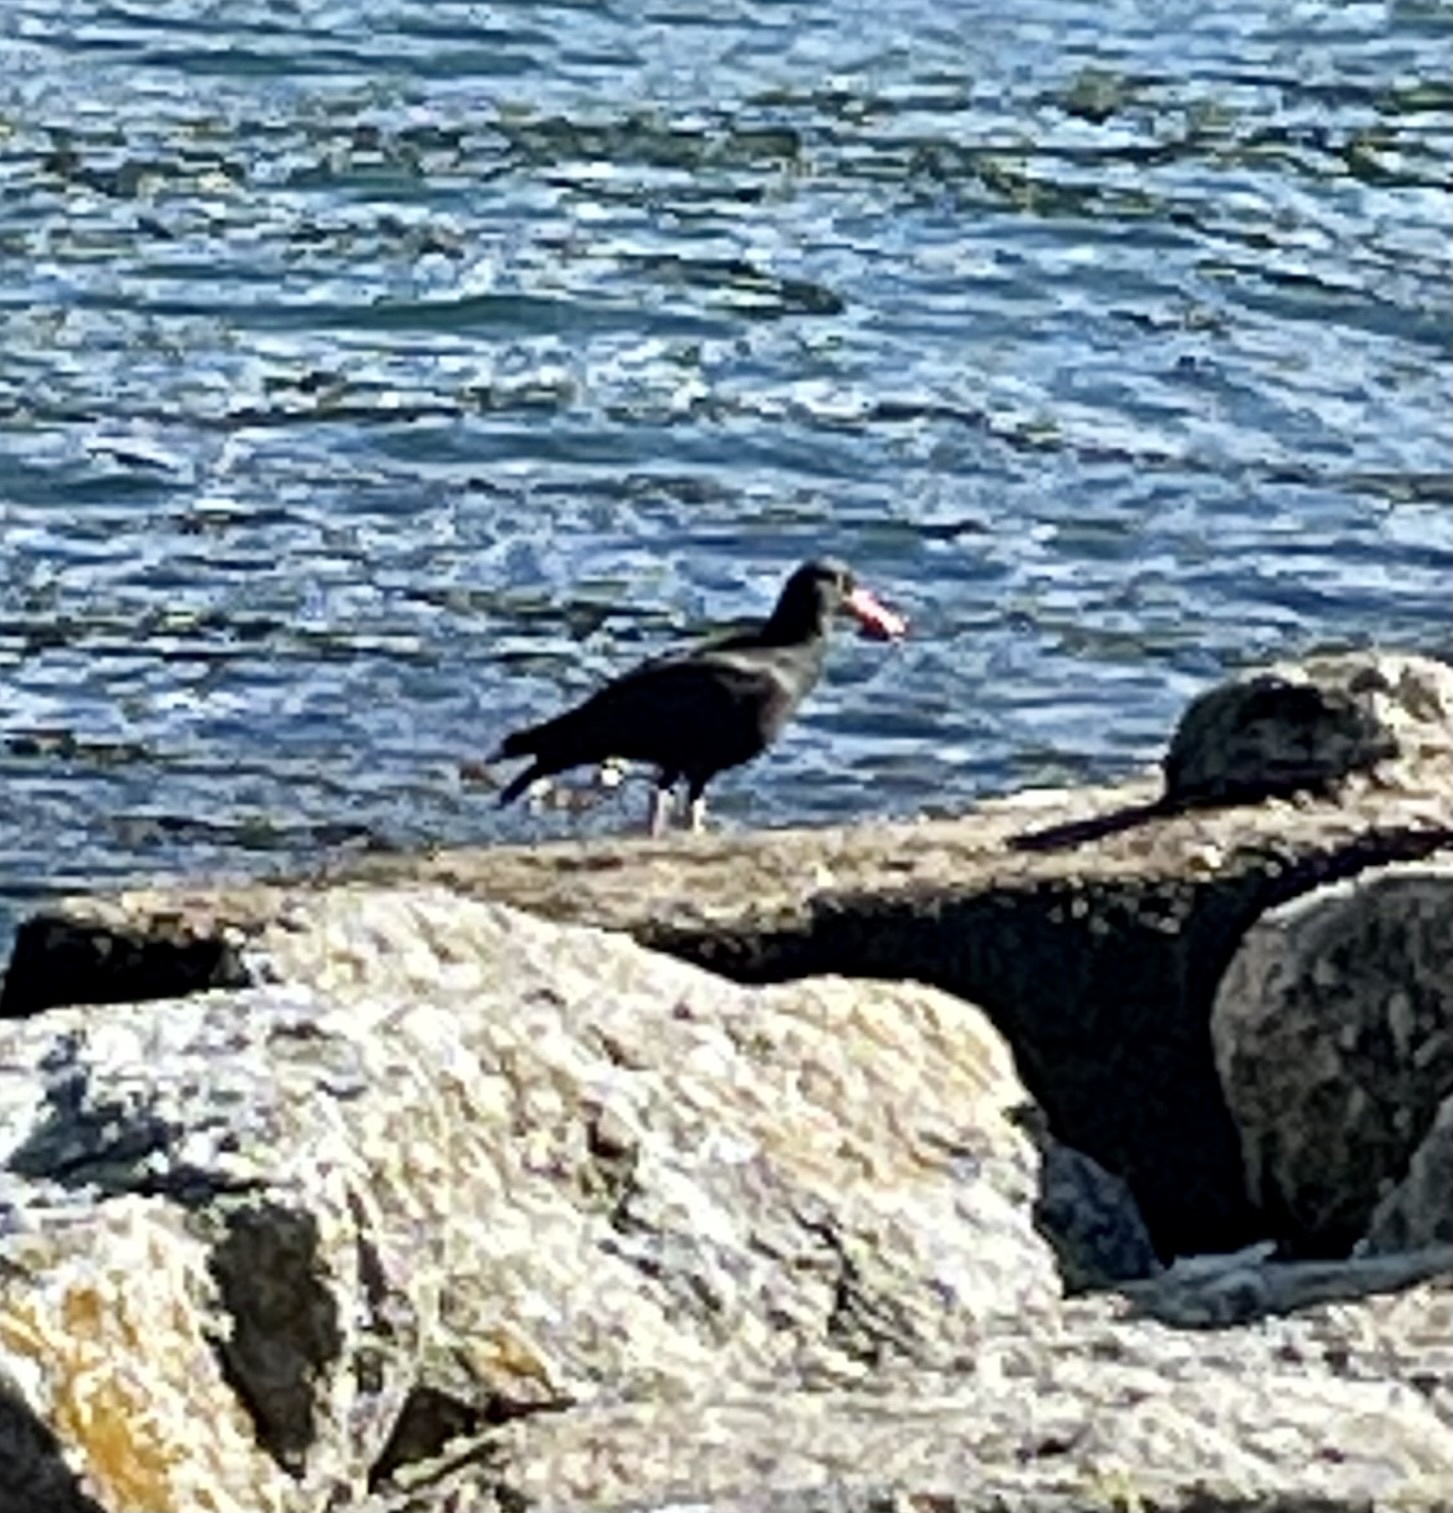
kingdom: Animalia
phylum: Chordata
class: Aves
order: Charadriiformes
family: Haematopodidae
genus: Haematopus
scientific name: Haematopus bachmani
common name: Black oystercatcher
